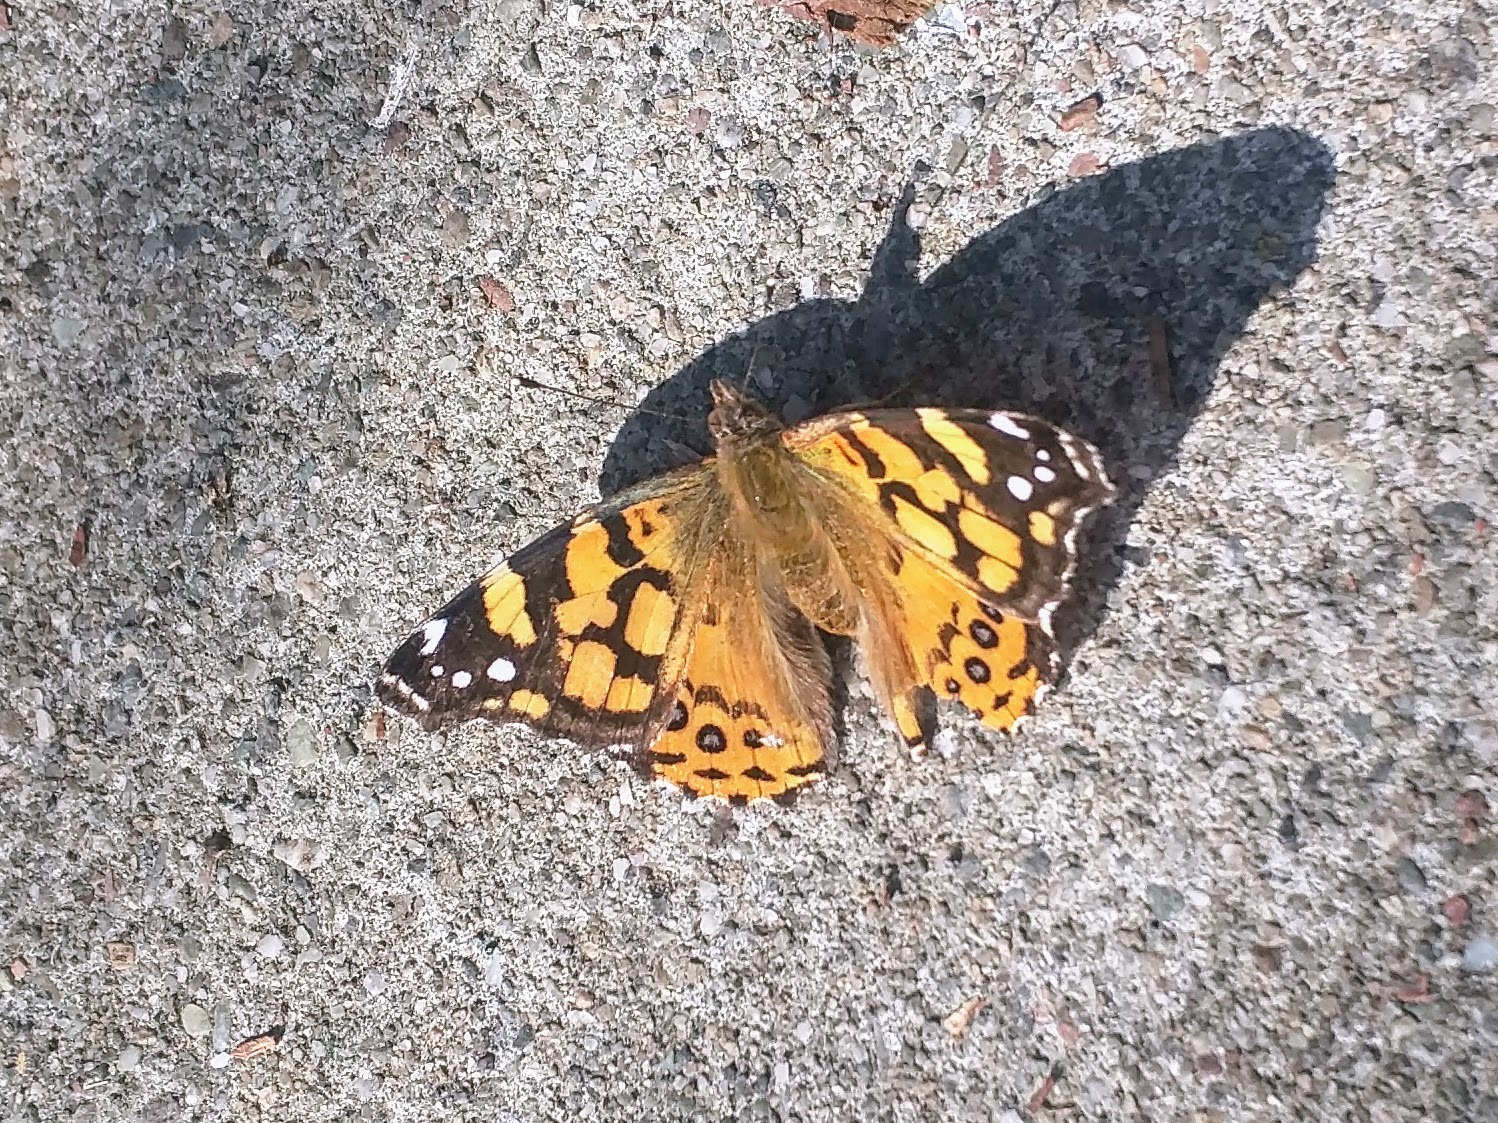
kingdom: Animalia
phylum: Arthropoda
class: Insecta
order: Lepidoptera
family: Nymphalidae
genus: Vanessa
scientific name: Vanessa annabella
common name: West coast lady
